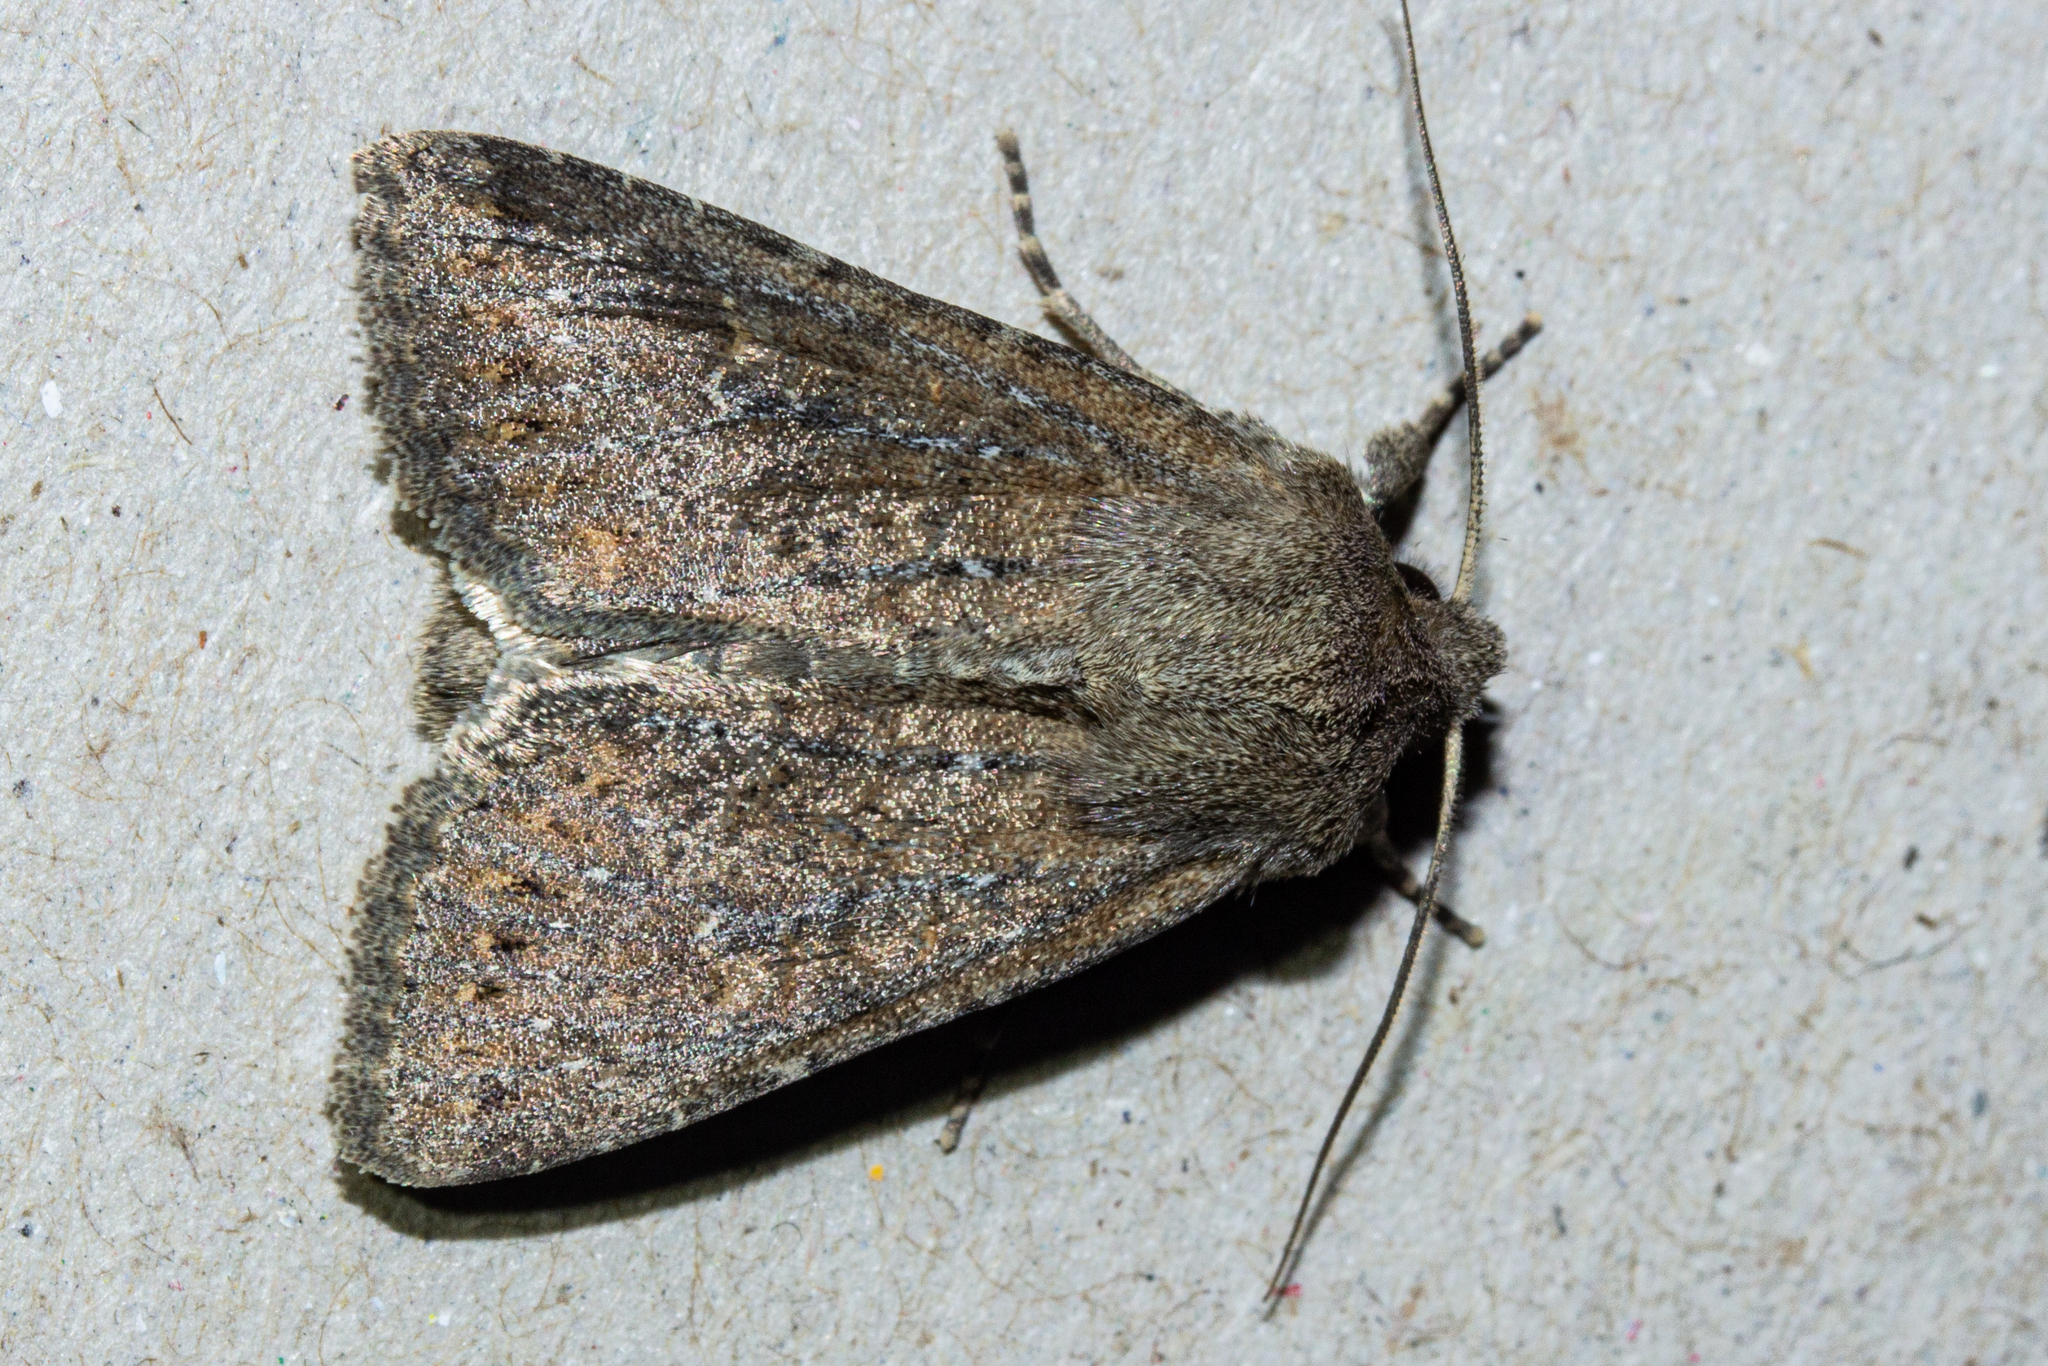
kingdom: Animalia
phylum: Arthropoda
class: Insecta
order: Lepidoptera
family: Noctuidae
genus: Physetica
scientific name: Physetica
